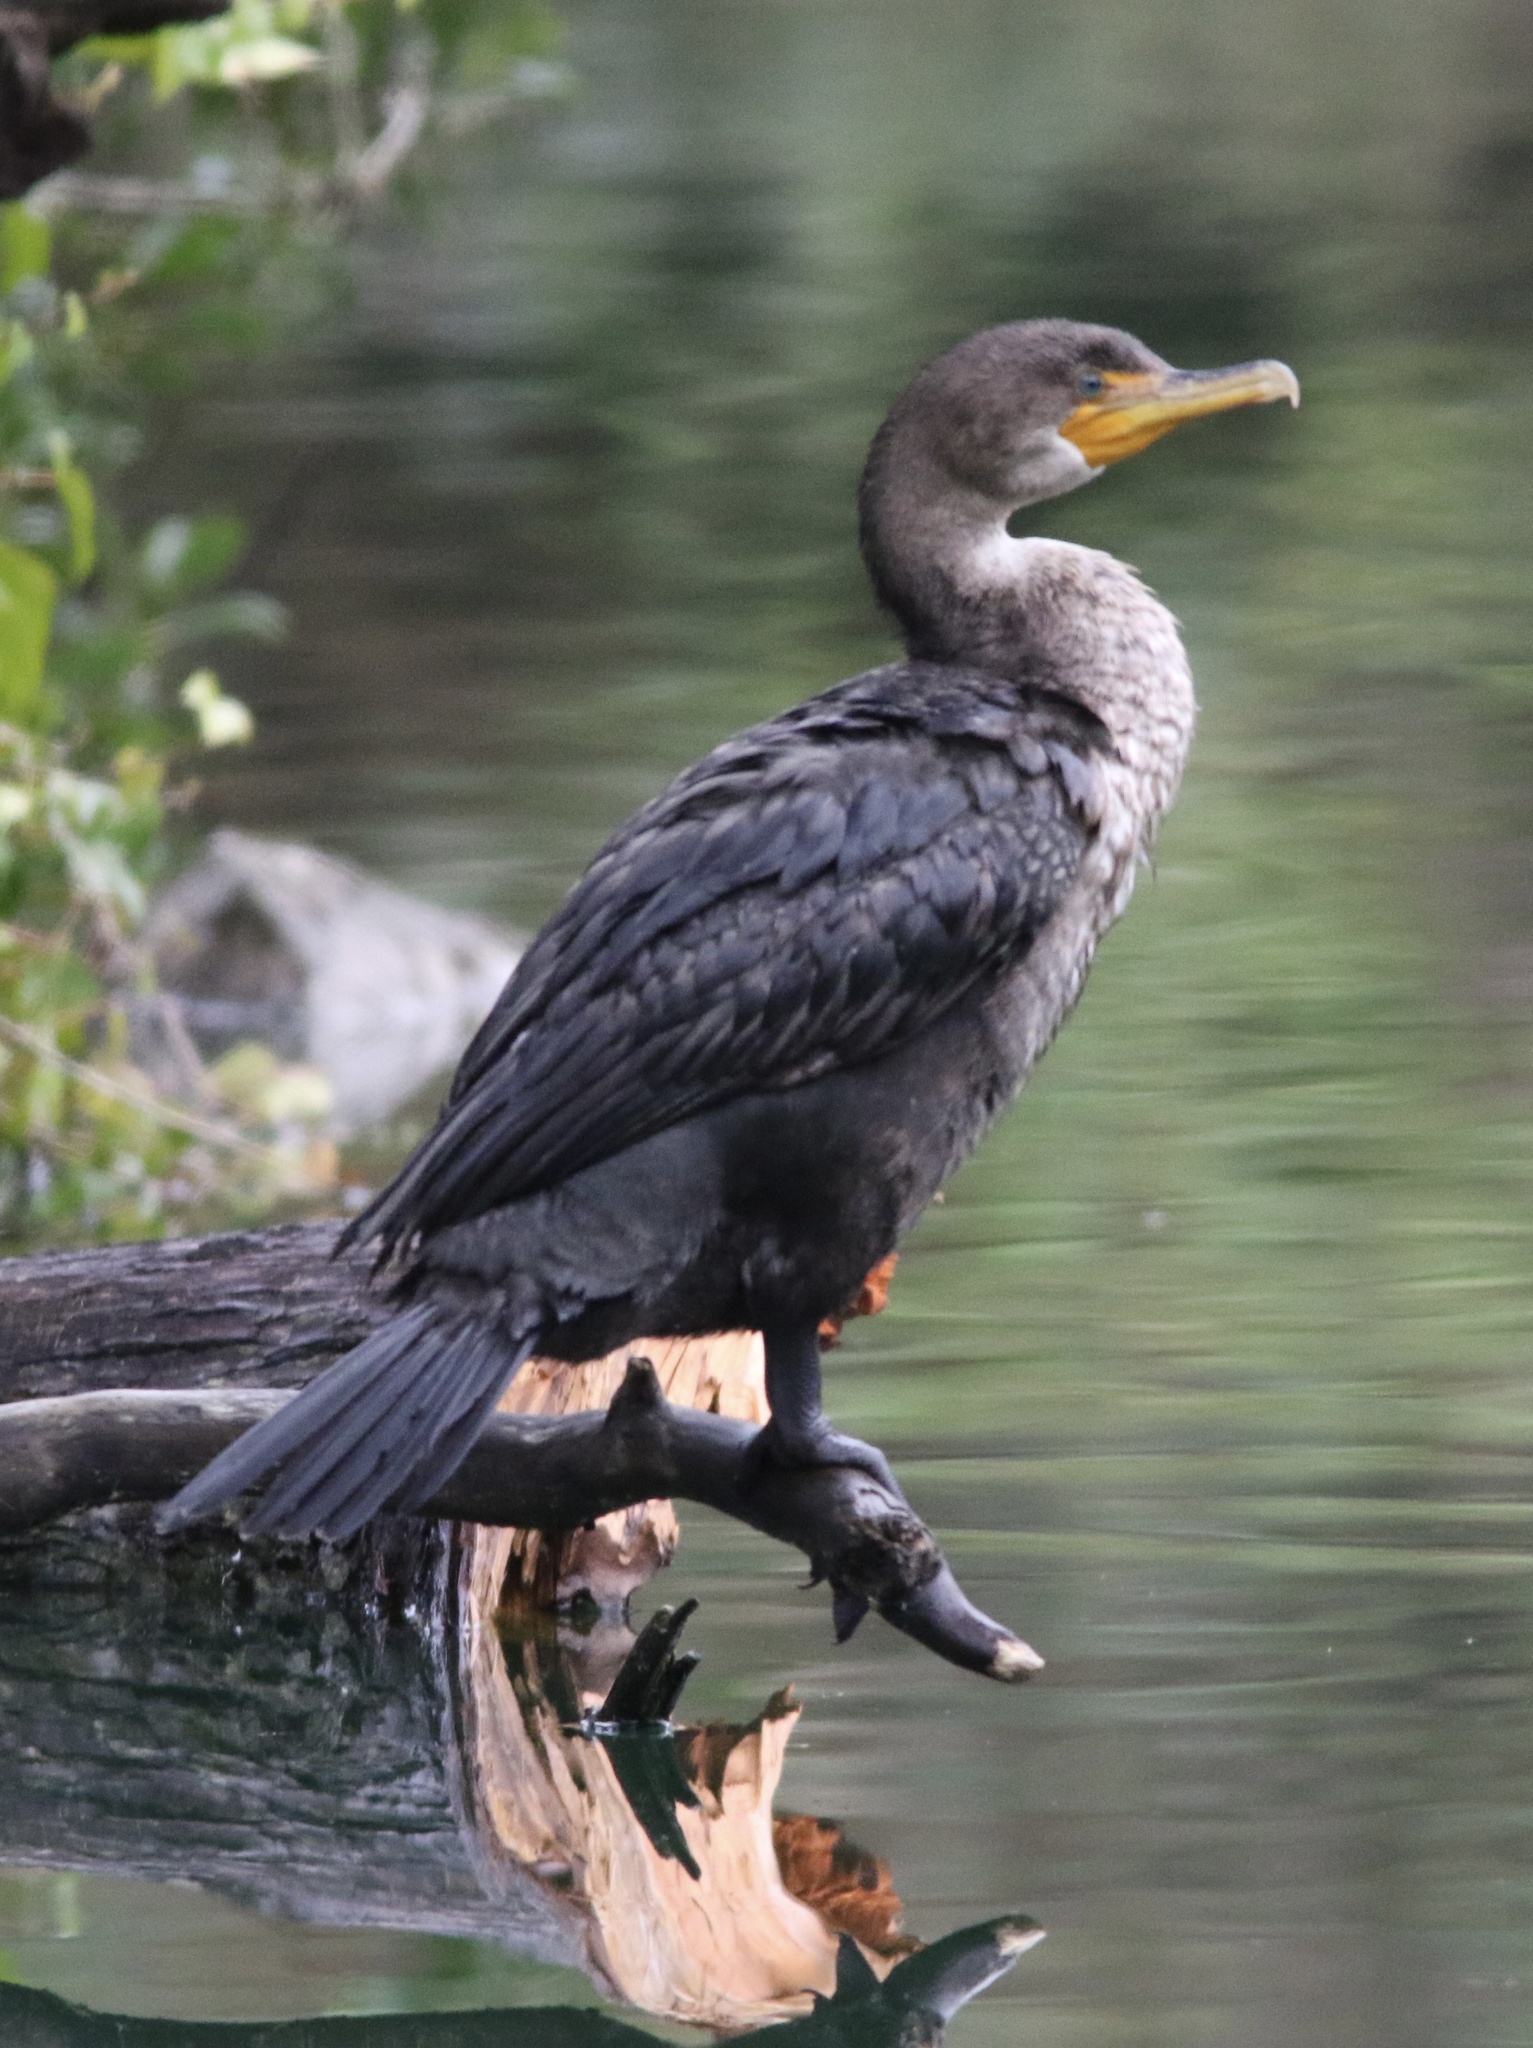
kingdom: Animalia
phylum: Chordata
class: Aves
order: Suliformes
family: Phalacrocoracidae
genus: Phalacrocorax
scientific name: Phalacrocorax auritus
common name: Double-crested cormorant
